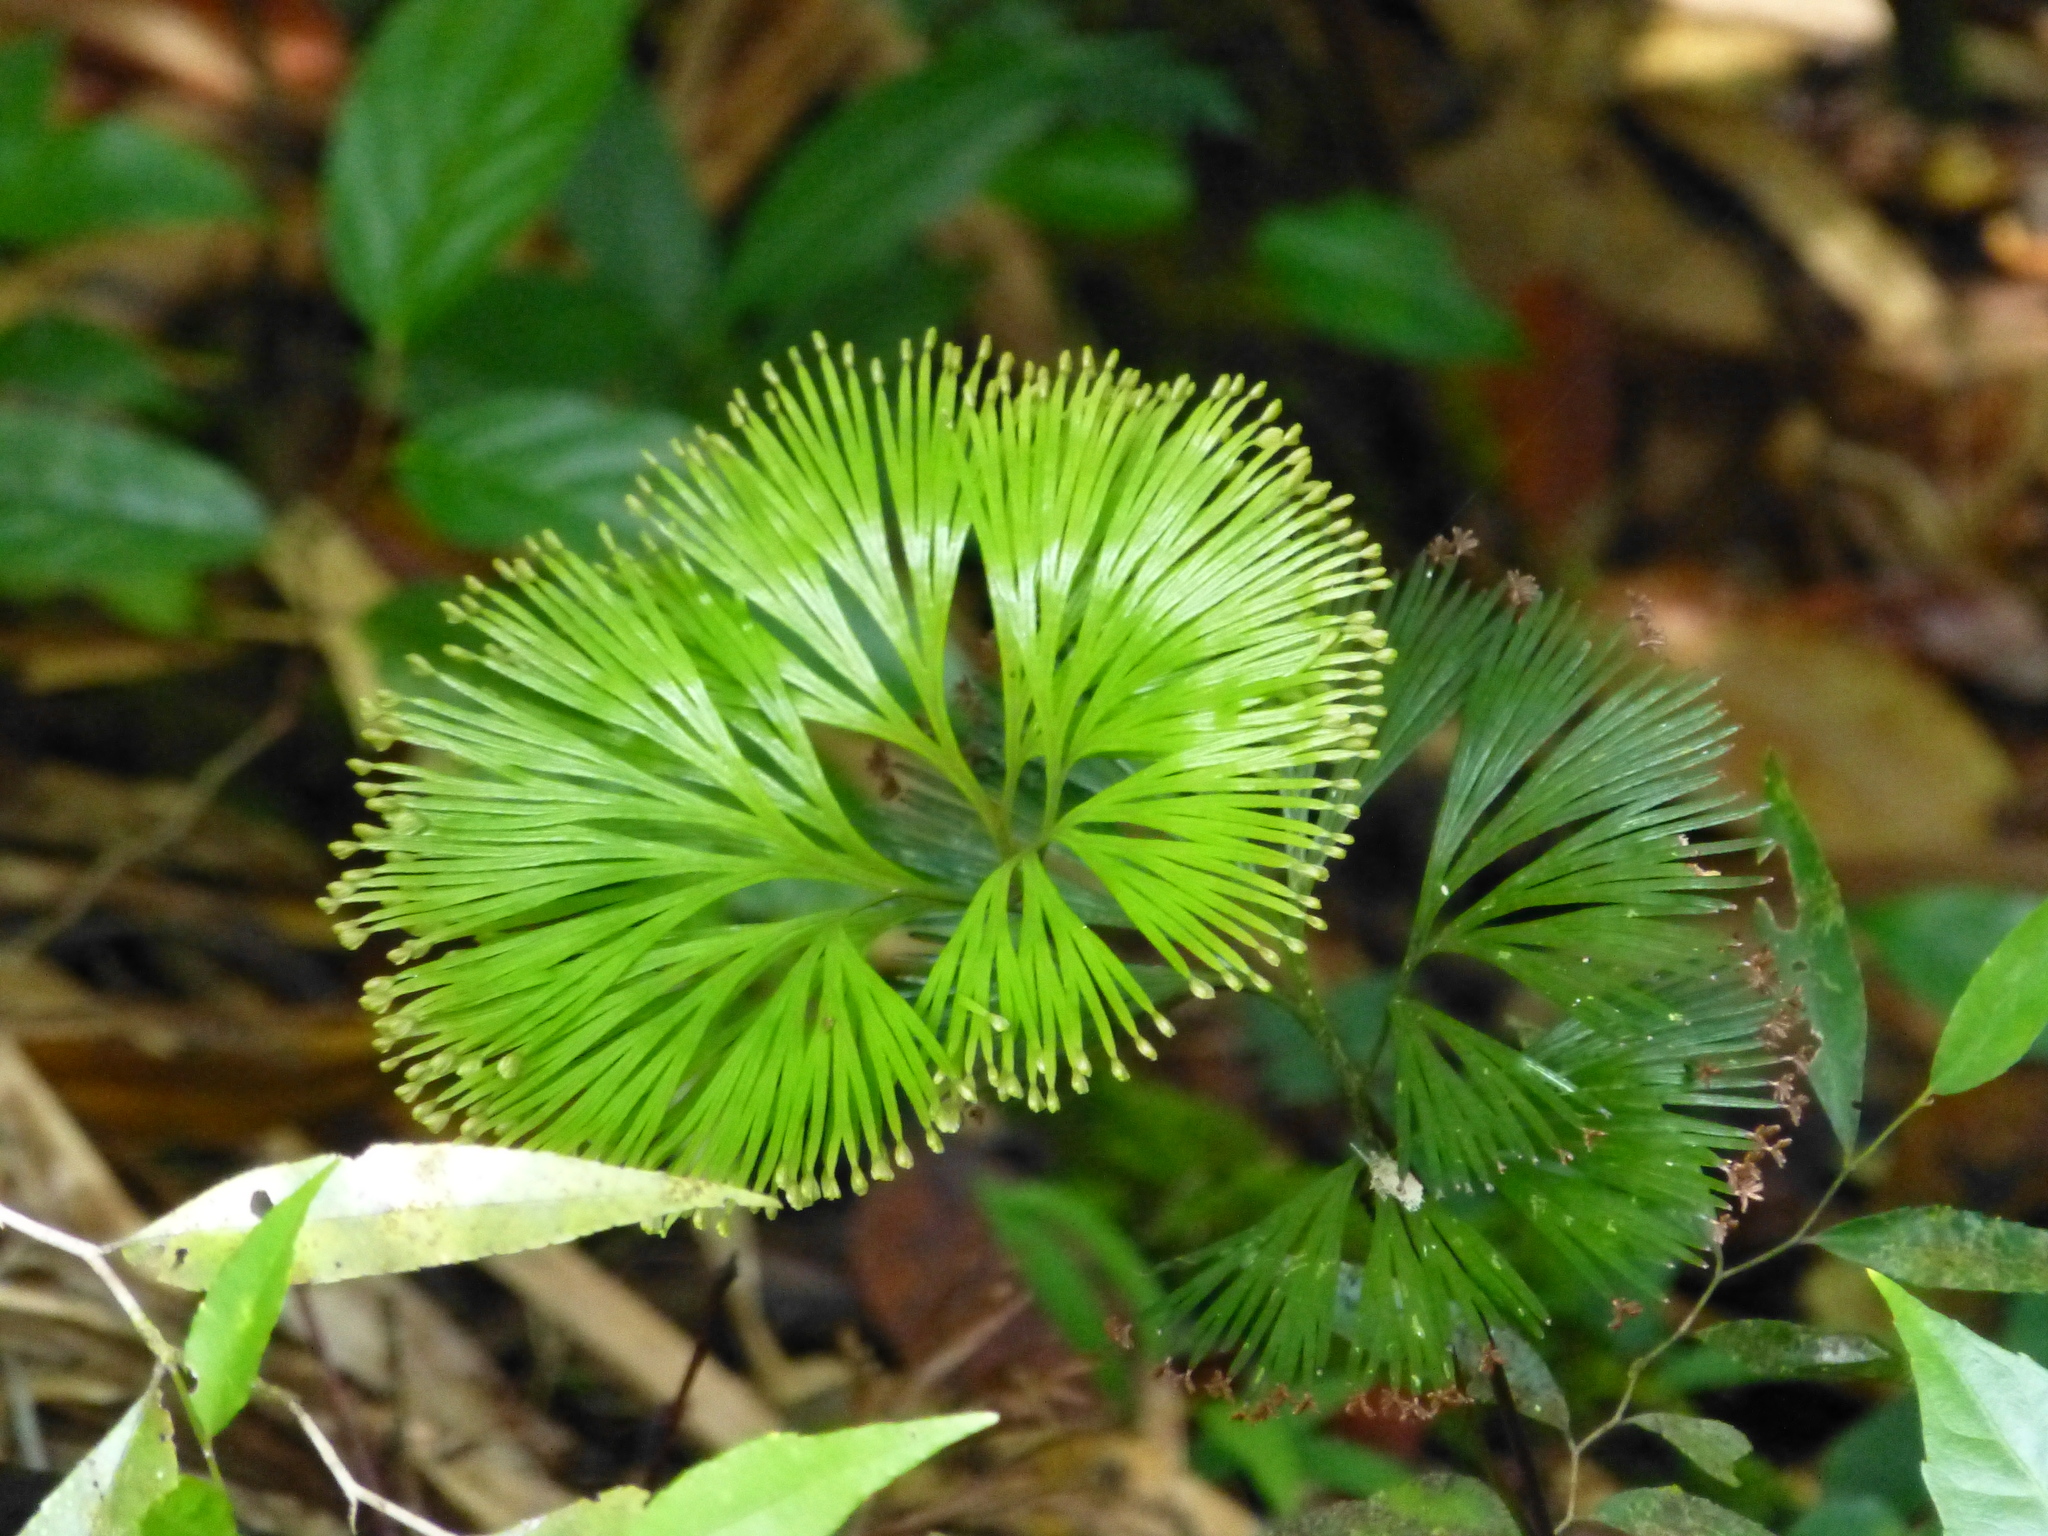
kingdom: Plantae
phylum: Tracheophyta
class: Polypodiopsida
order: Schizaeales
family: Schizaeaceae
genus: Schizaea
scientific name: Schizaea dichotoma
